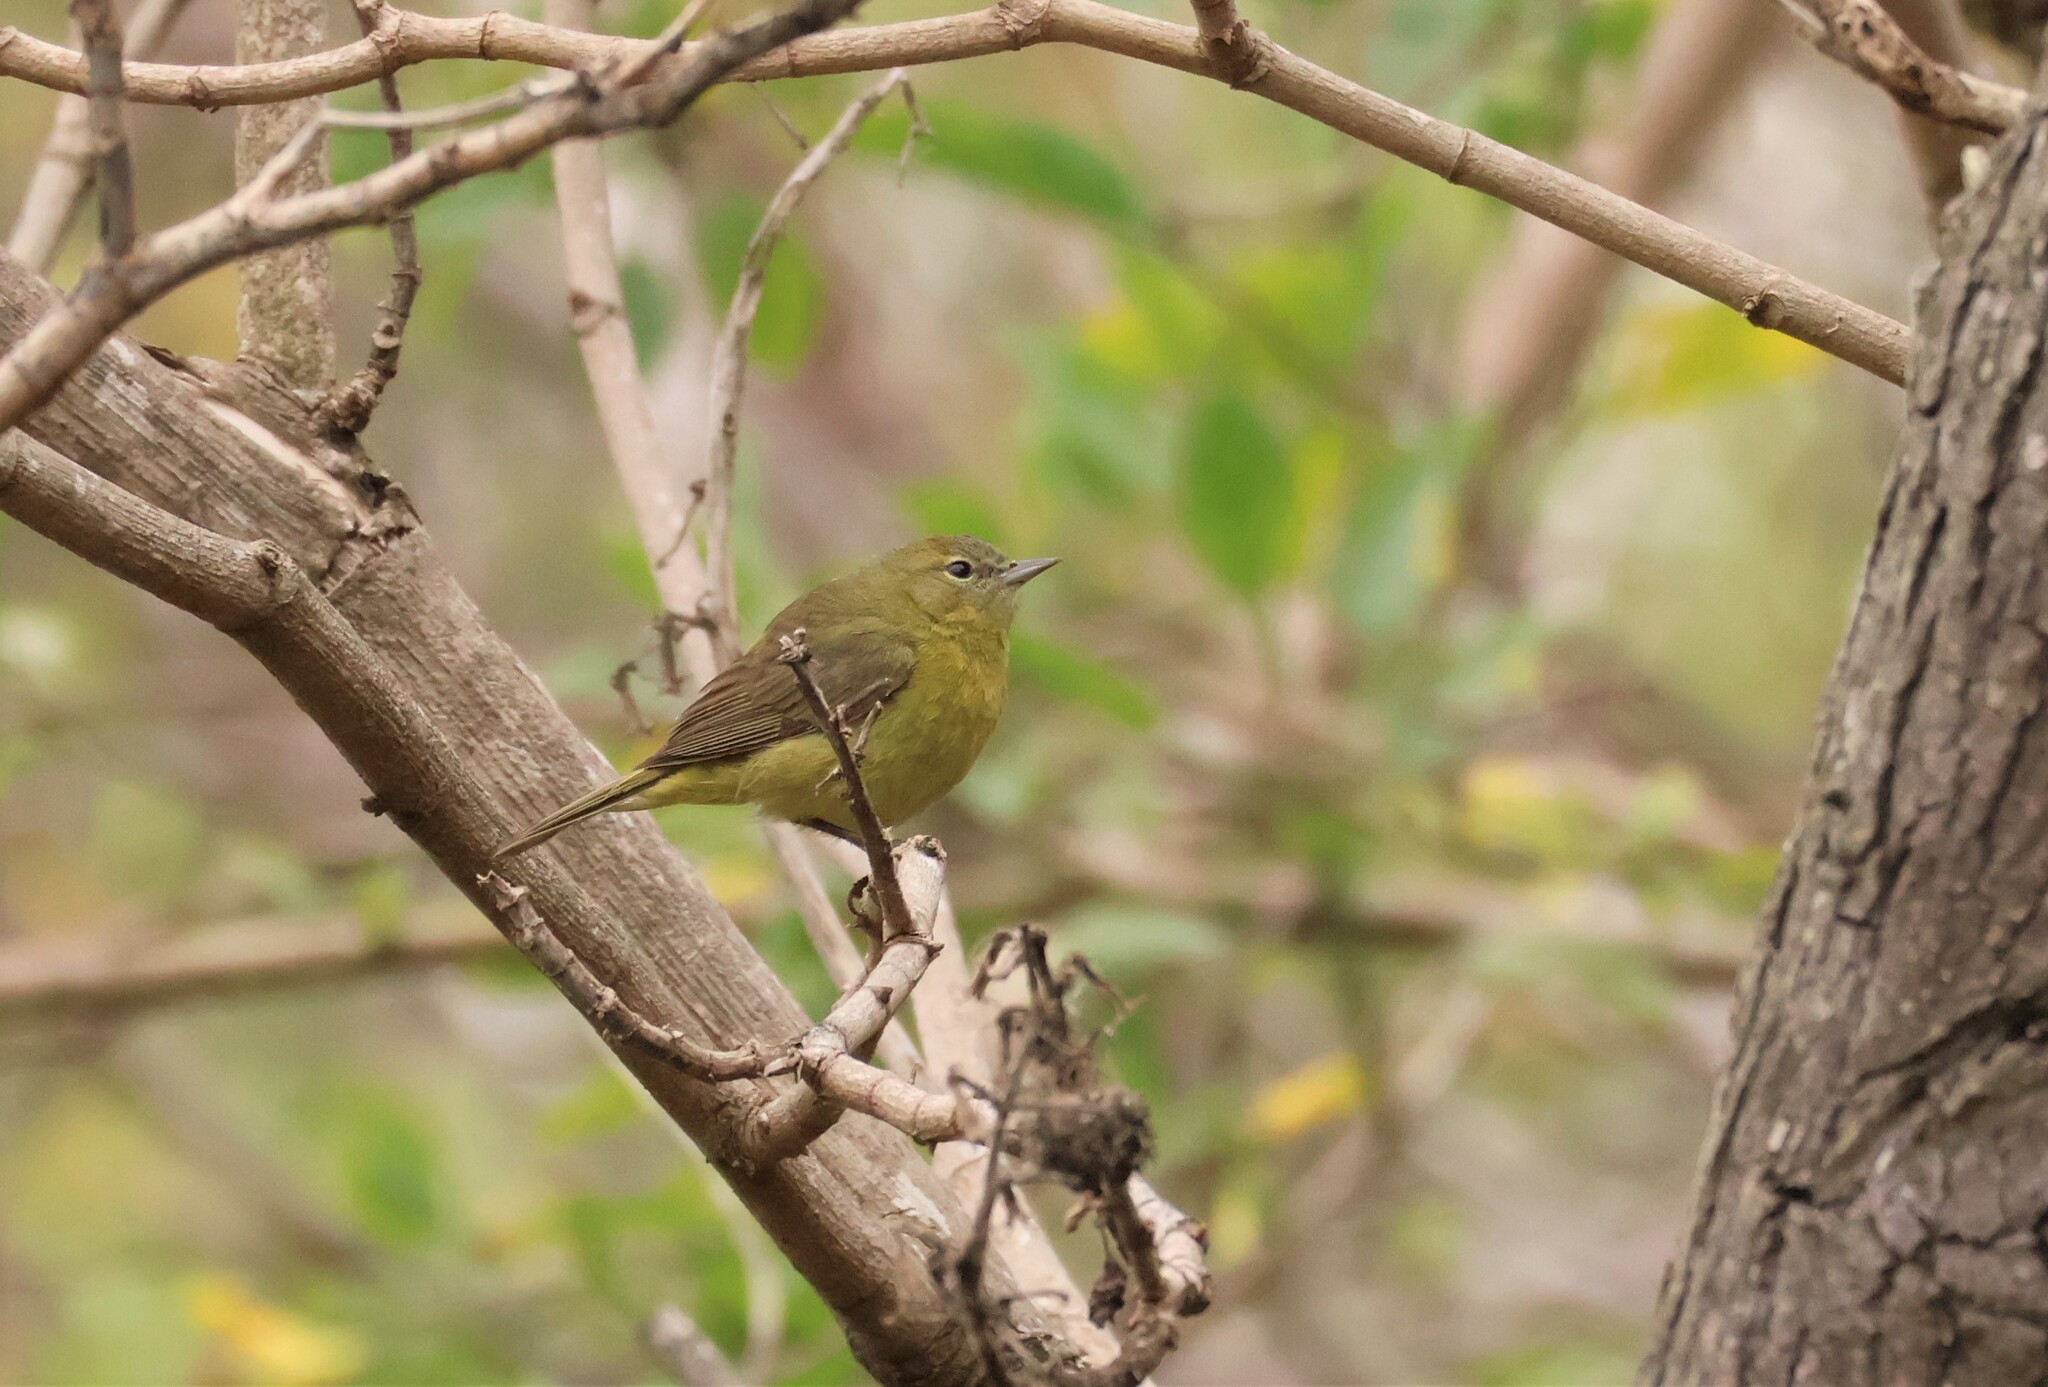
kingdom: Animalia
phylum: Chordata
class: Aves
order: Passeriformes
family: Parulidae
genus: Leiothlypis
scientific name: Leiothlypis celata
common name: Orange-crowned warbler
